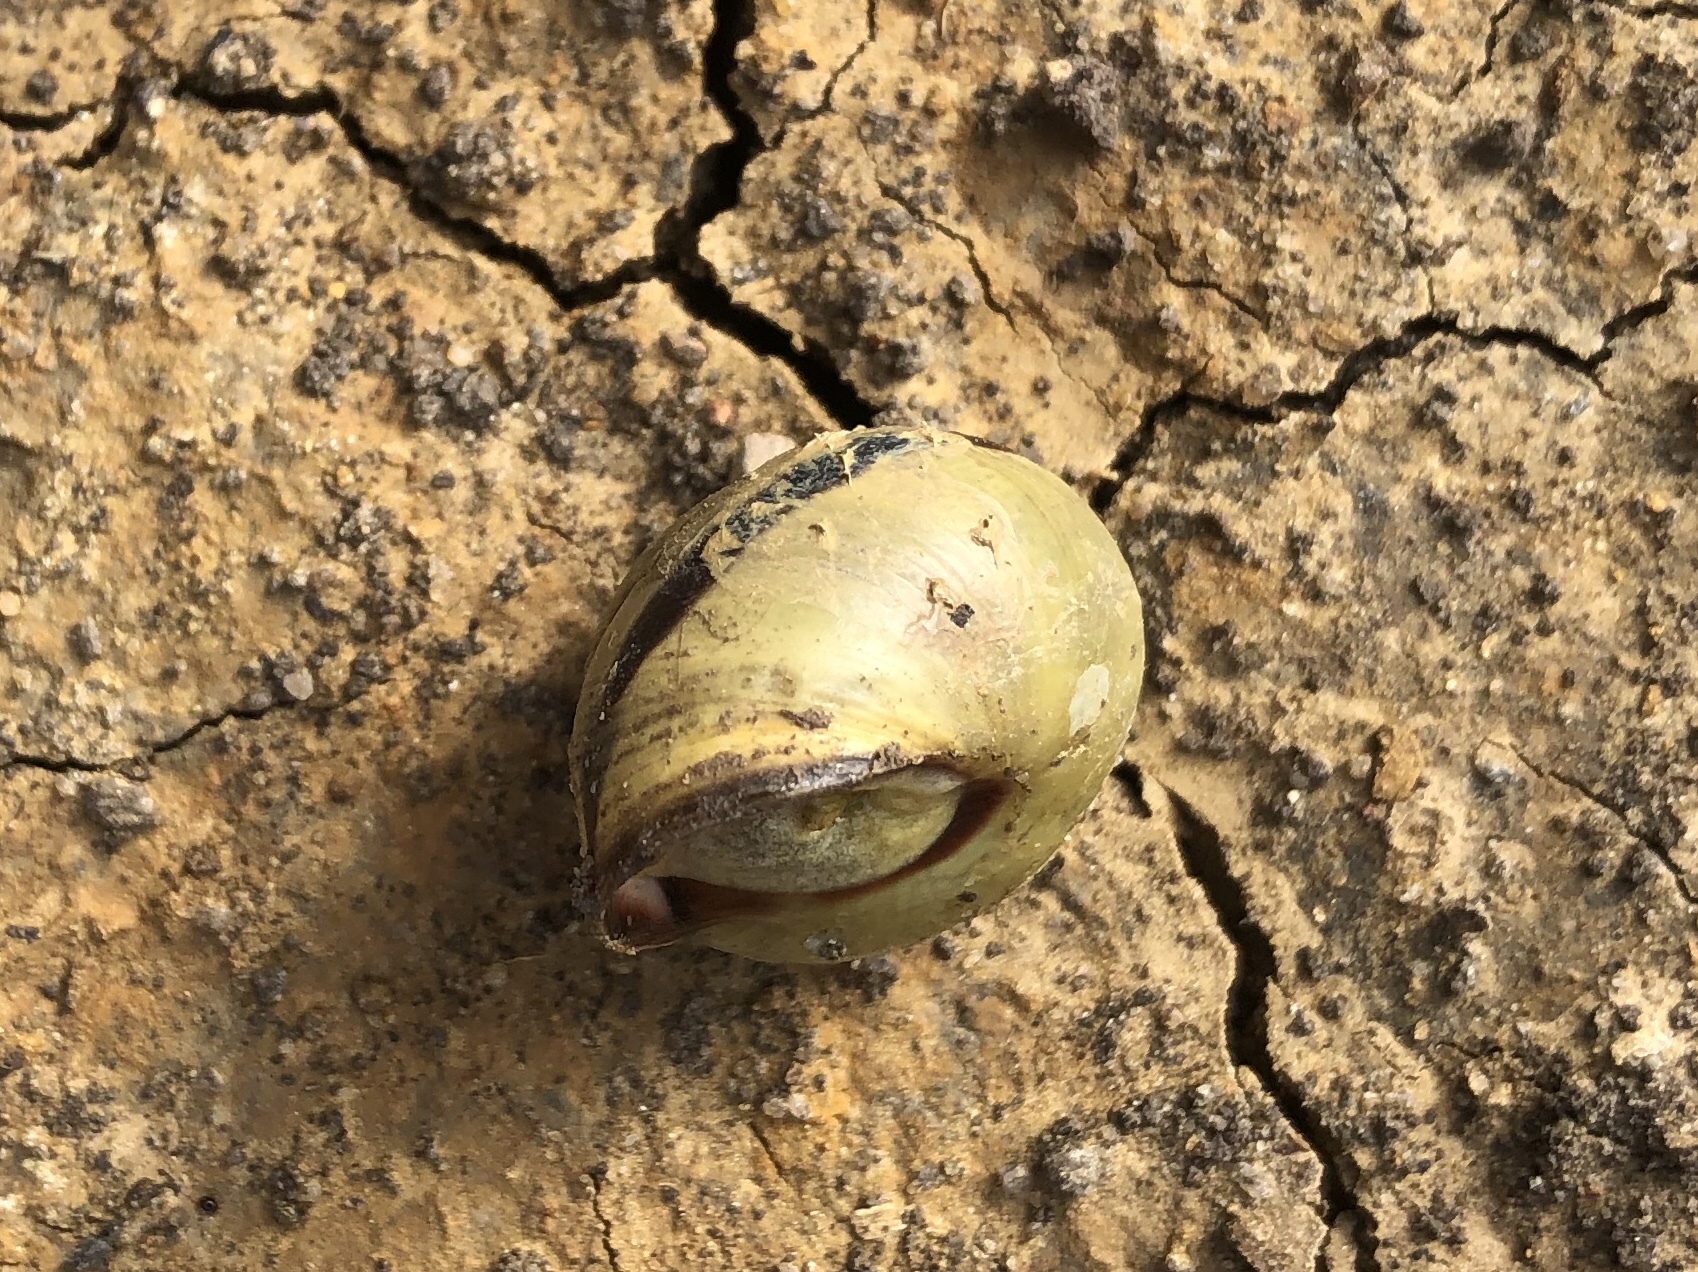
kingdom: Animalia
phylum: Mollusca
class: Gastropoda
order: Stylommatophora
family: Helicidae
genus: Cepaea
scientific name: Cepaea nemoralis
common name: Grovesnail
